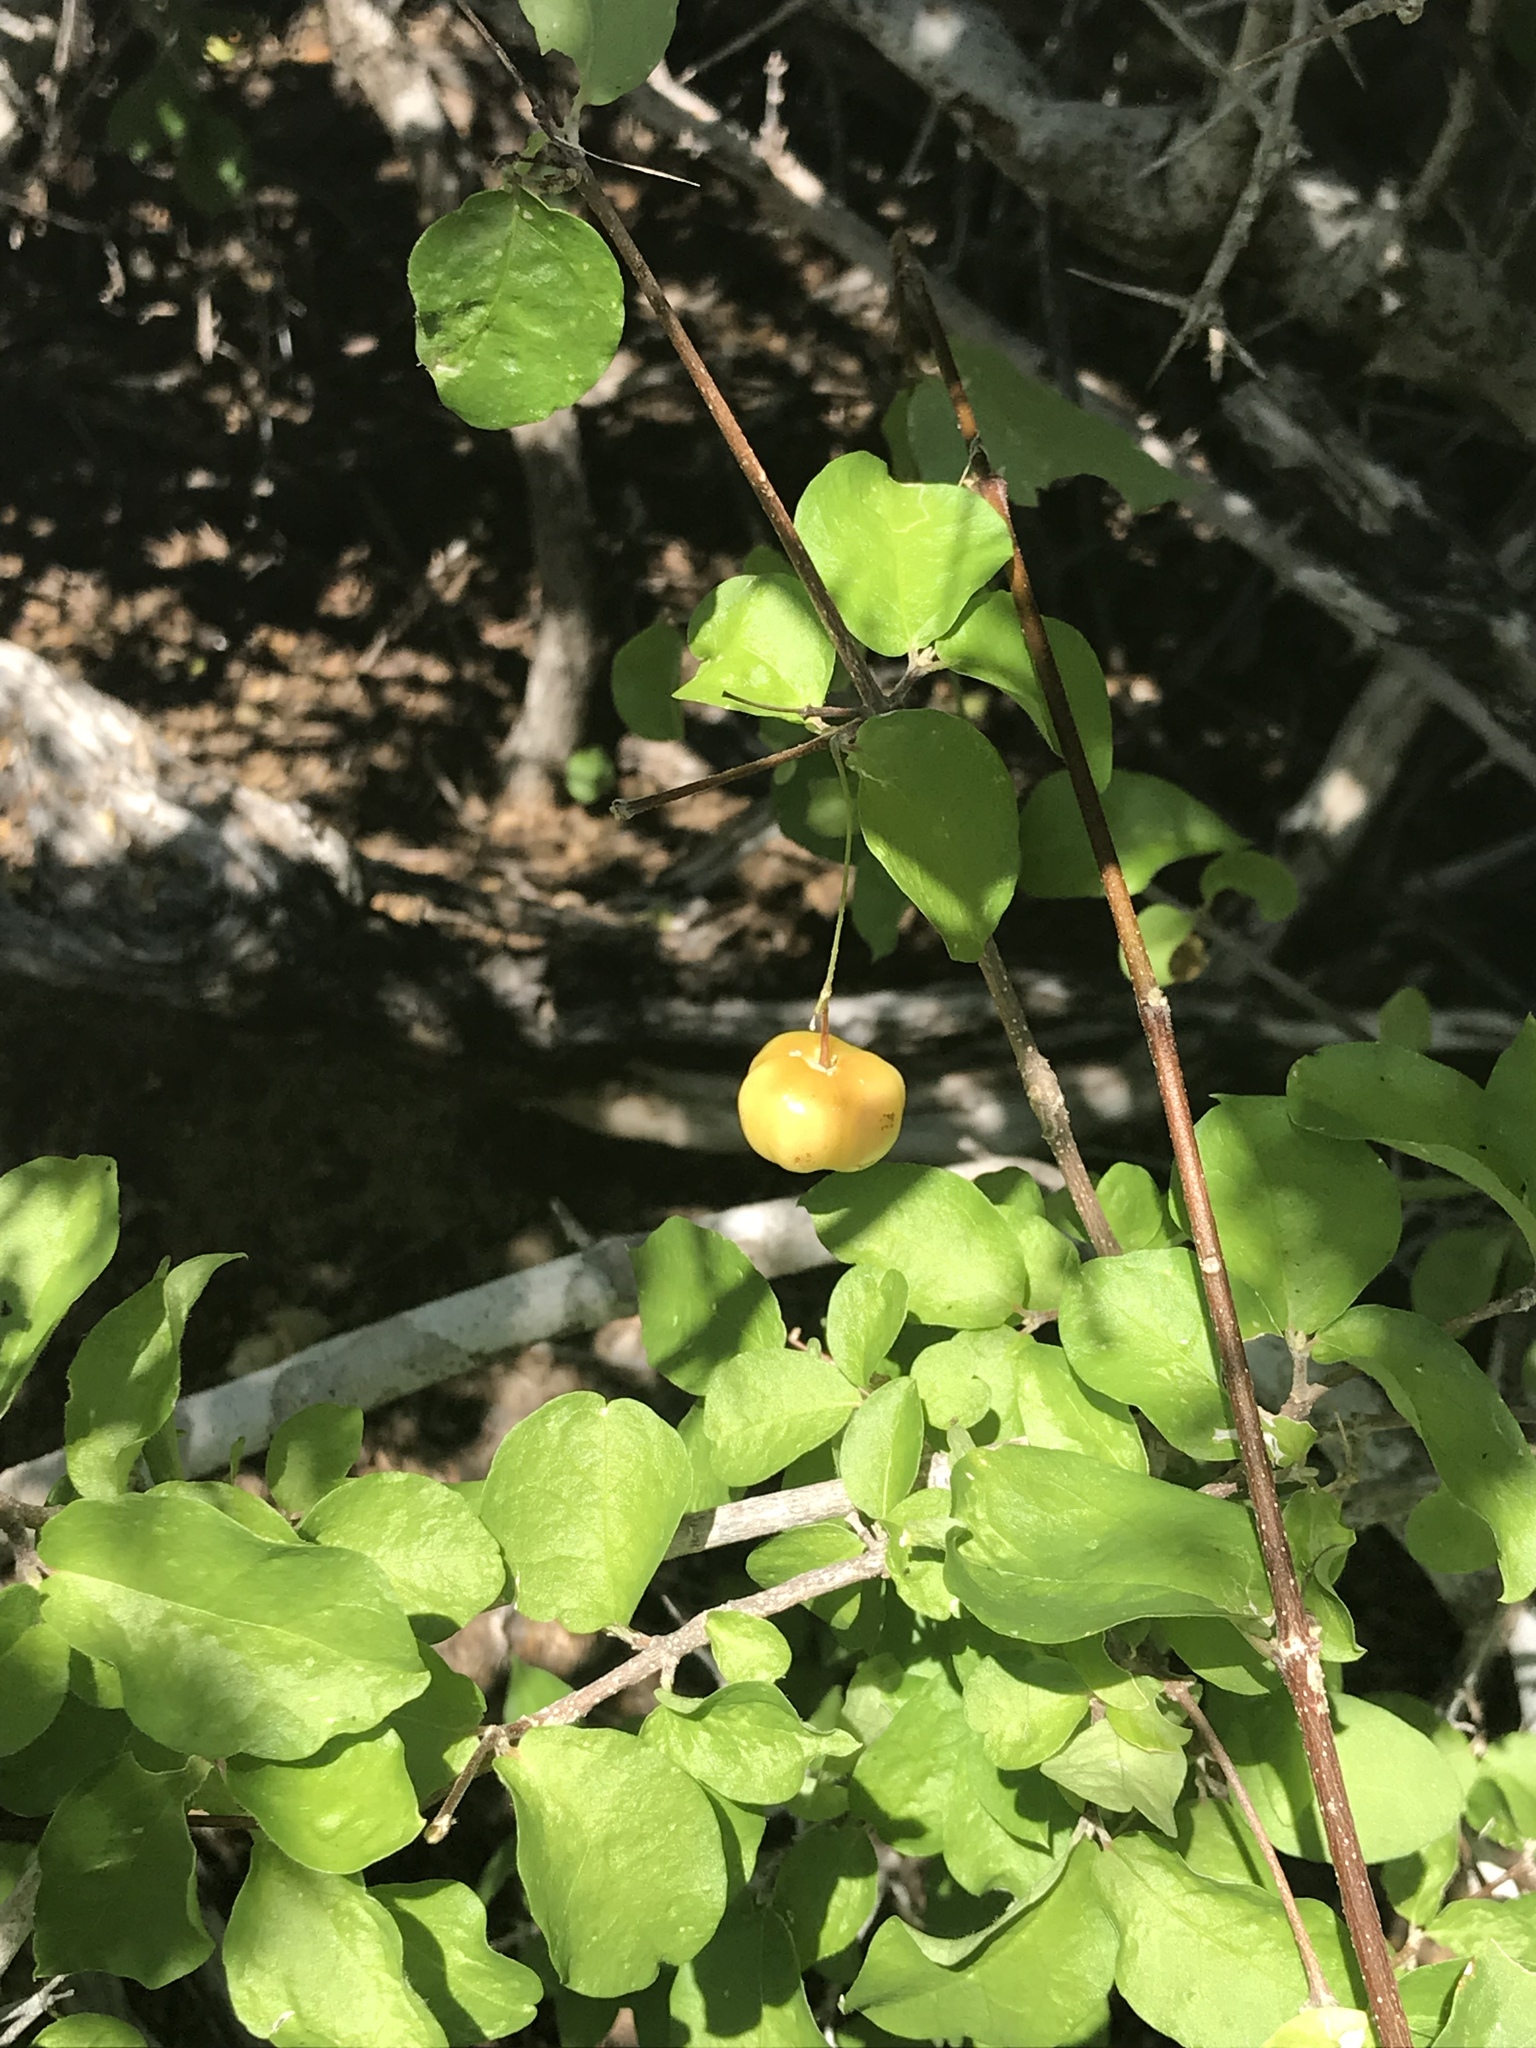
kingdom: Plantae
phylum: Tracheophyta
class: Magnoliopsida
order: Malpighiales
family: Malpighiaceae
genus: Malpighia
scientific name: Malpighia diversifolia
